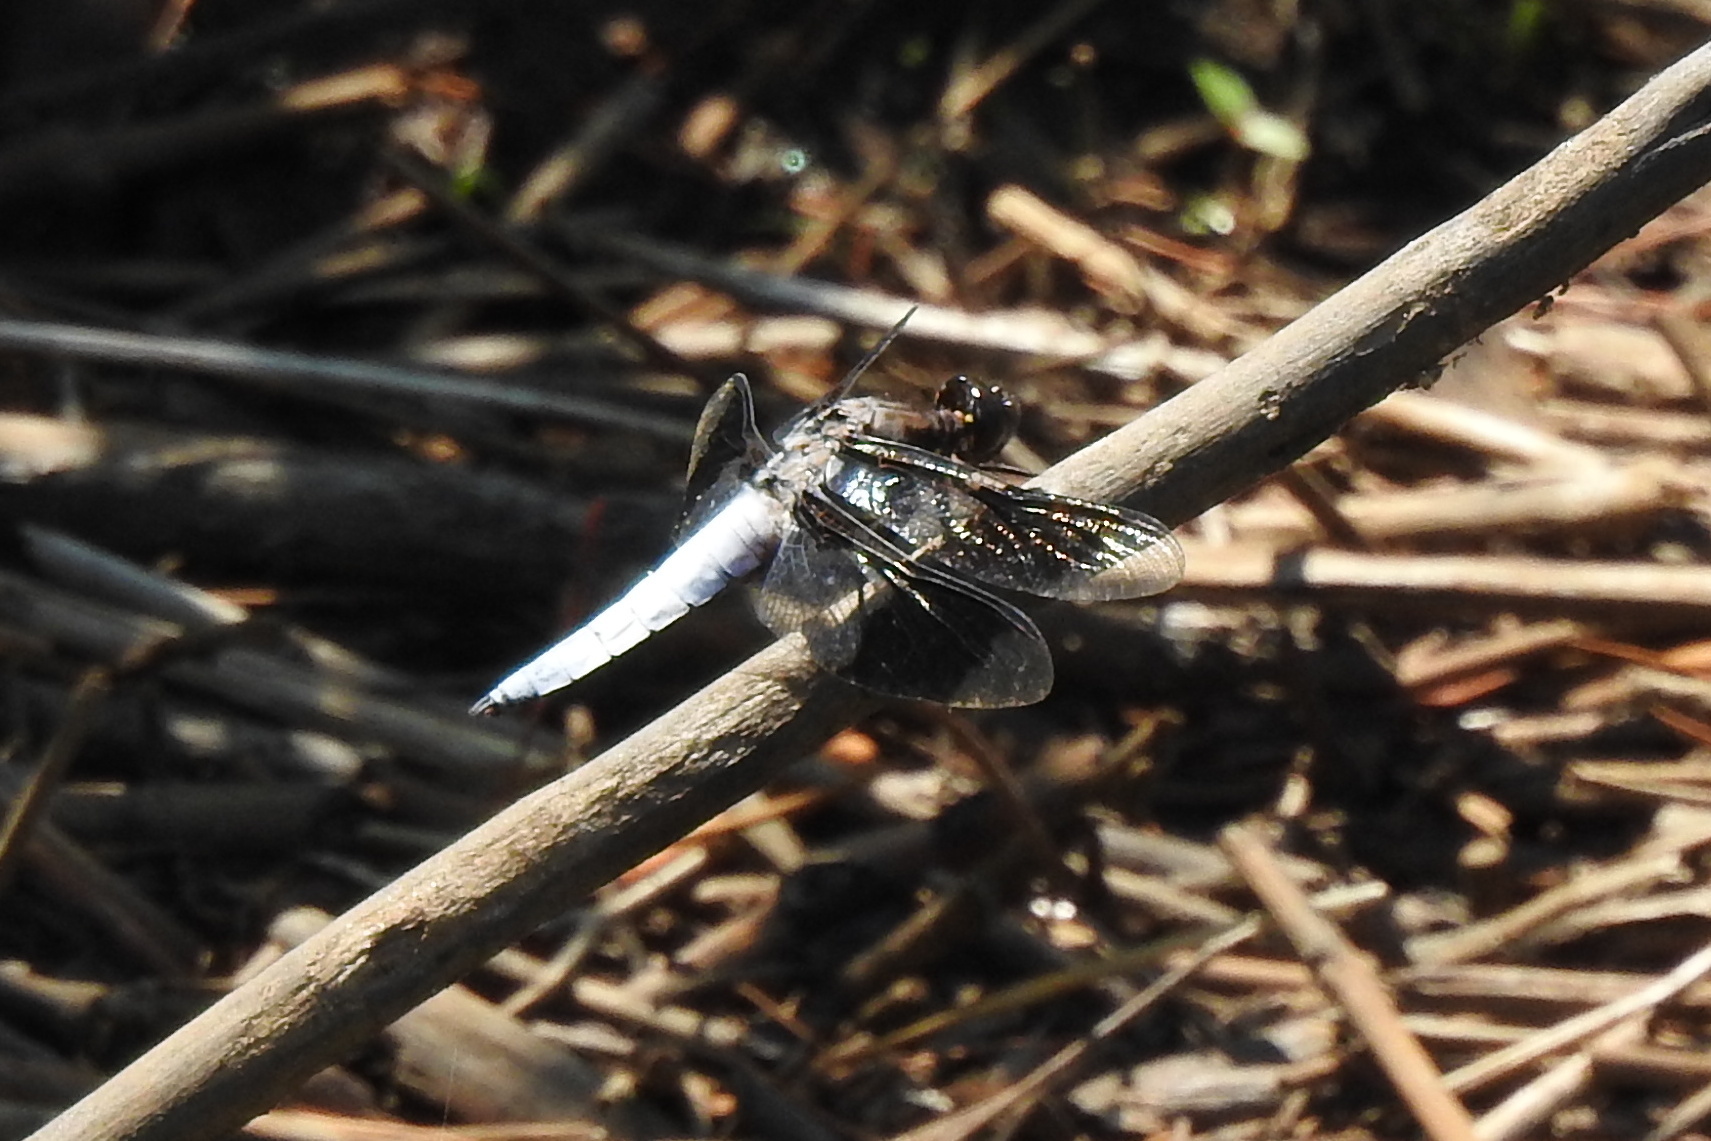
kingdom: Animalia
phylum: Arthropoda
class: Insecta
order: Odonata
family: Libellulidae
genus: Plathemis
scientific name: Plathemis lydia
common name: Common whitetail
